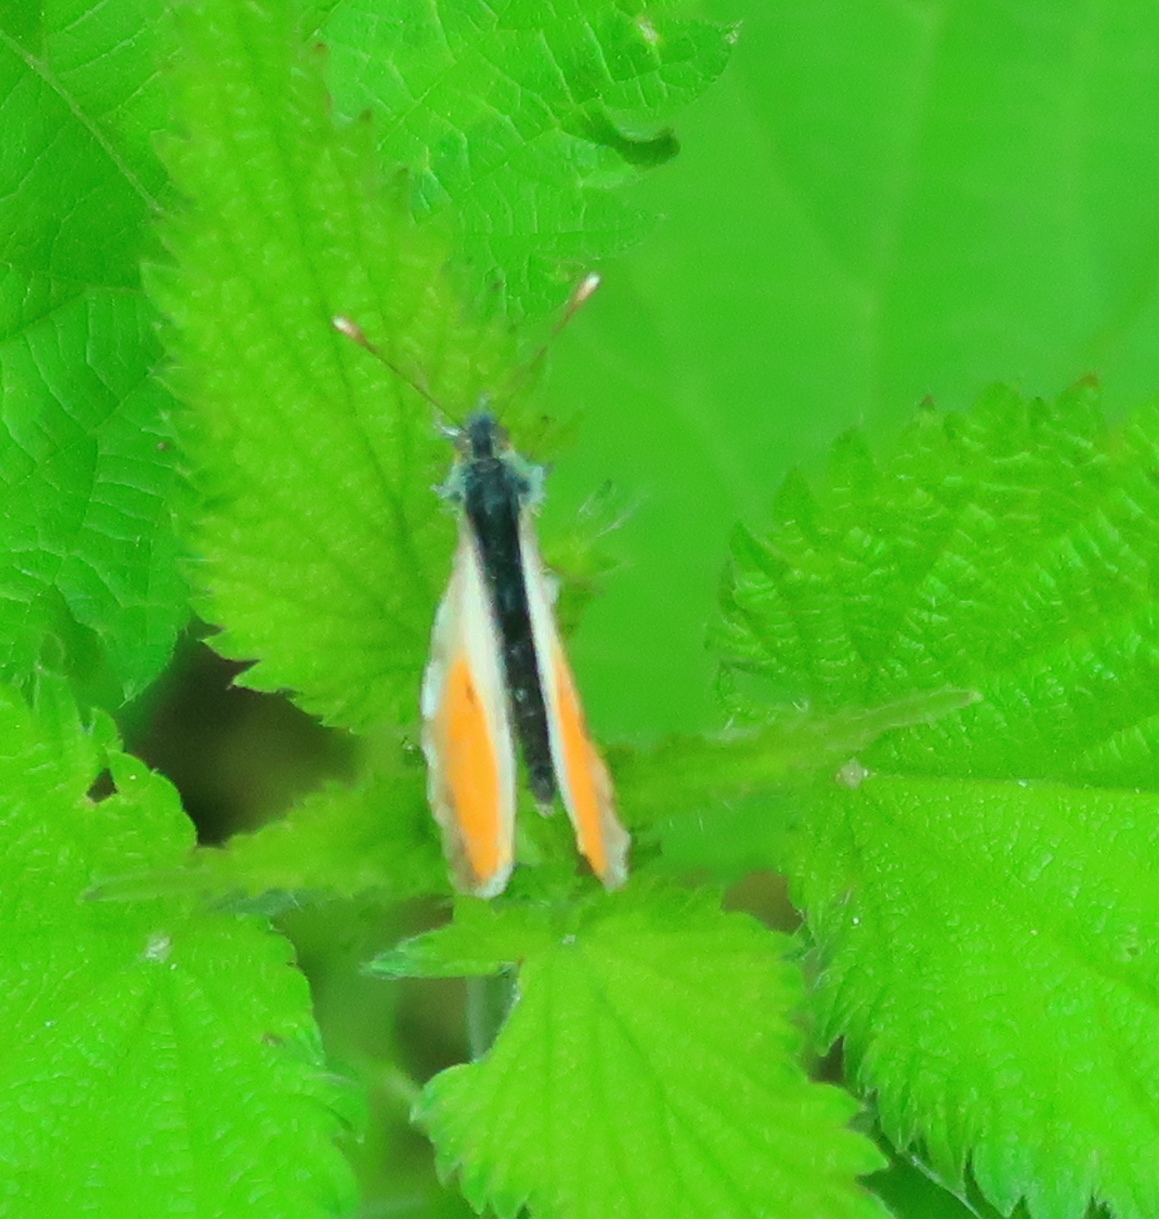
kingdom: Animalia
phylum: Arthropoda
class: Insecta
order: Lepidoptera
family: Pieridae
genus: Anthocharis
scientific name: Anthocharis cardamines
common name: Orange-tip
